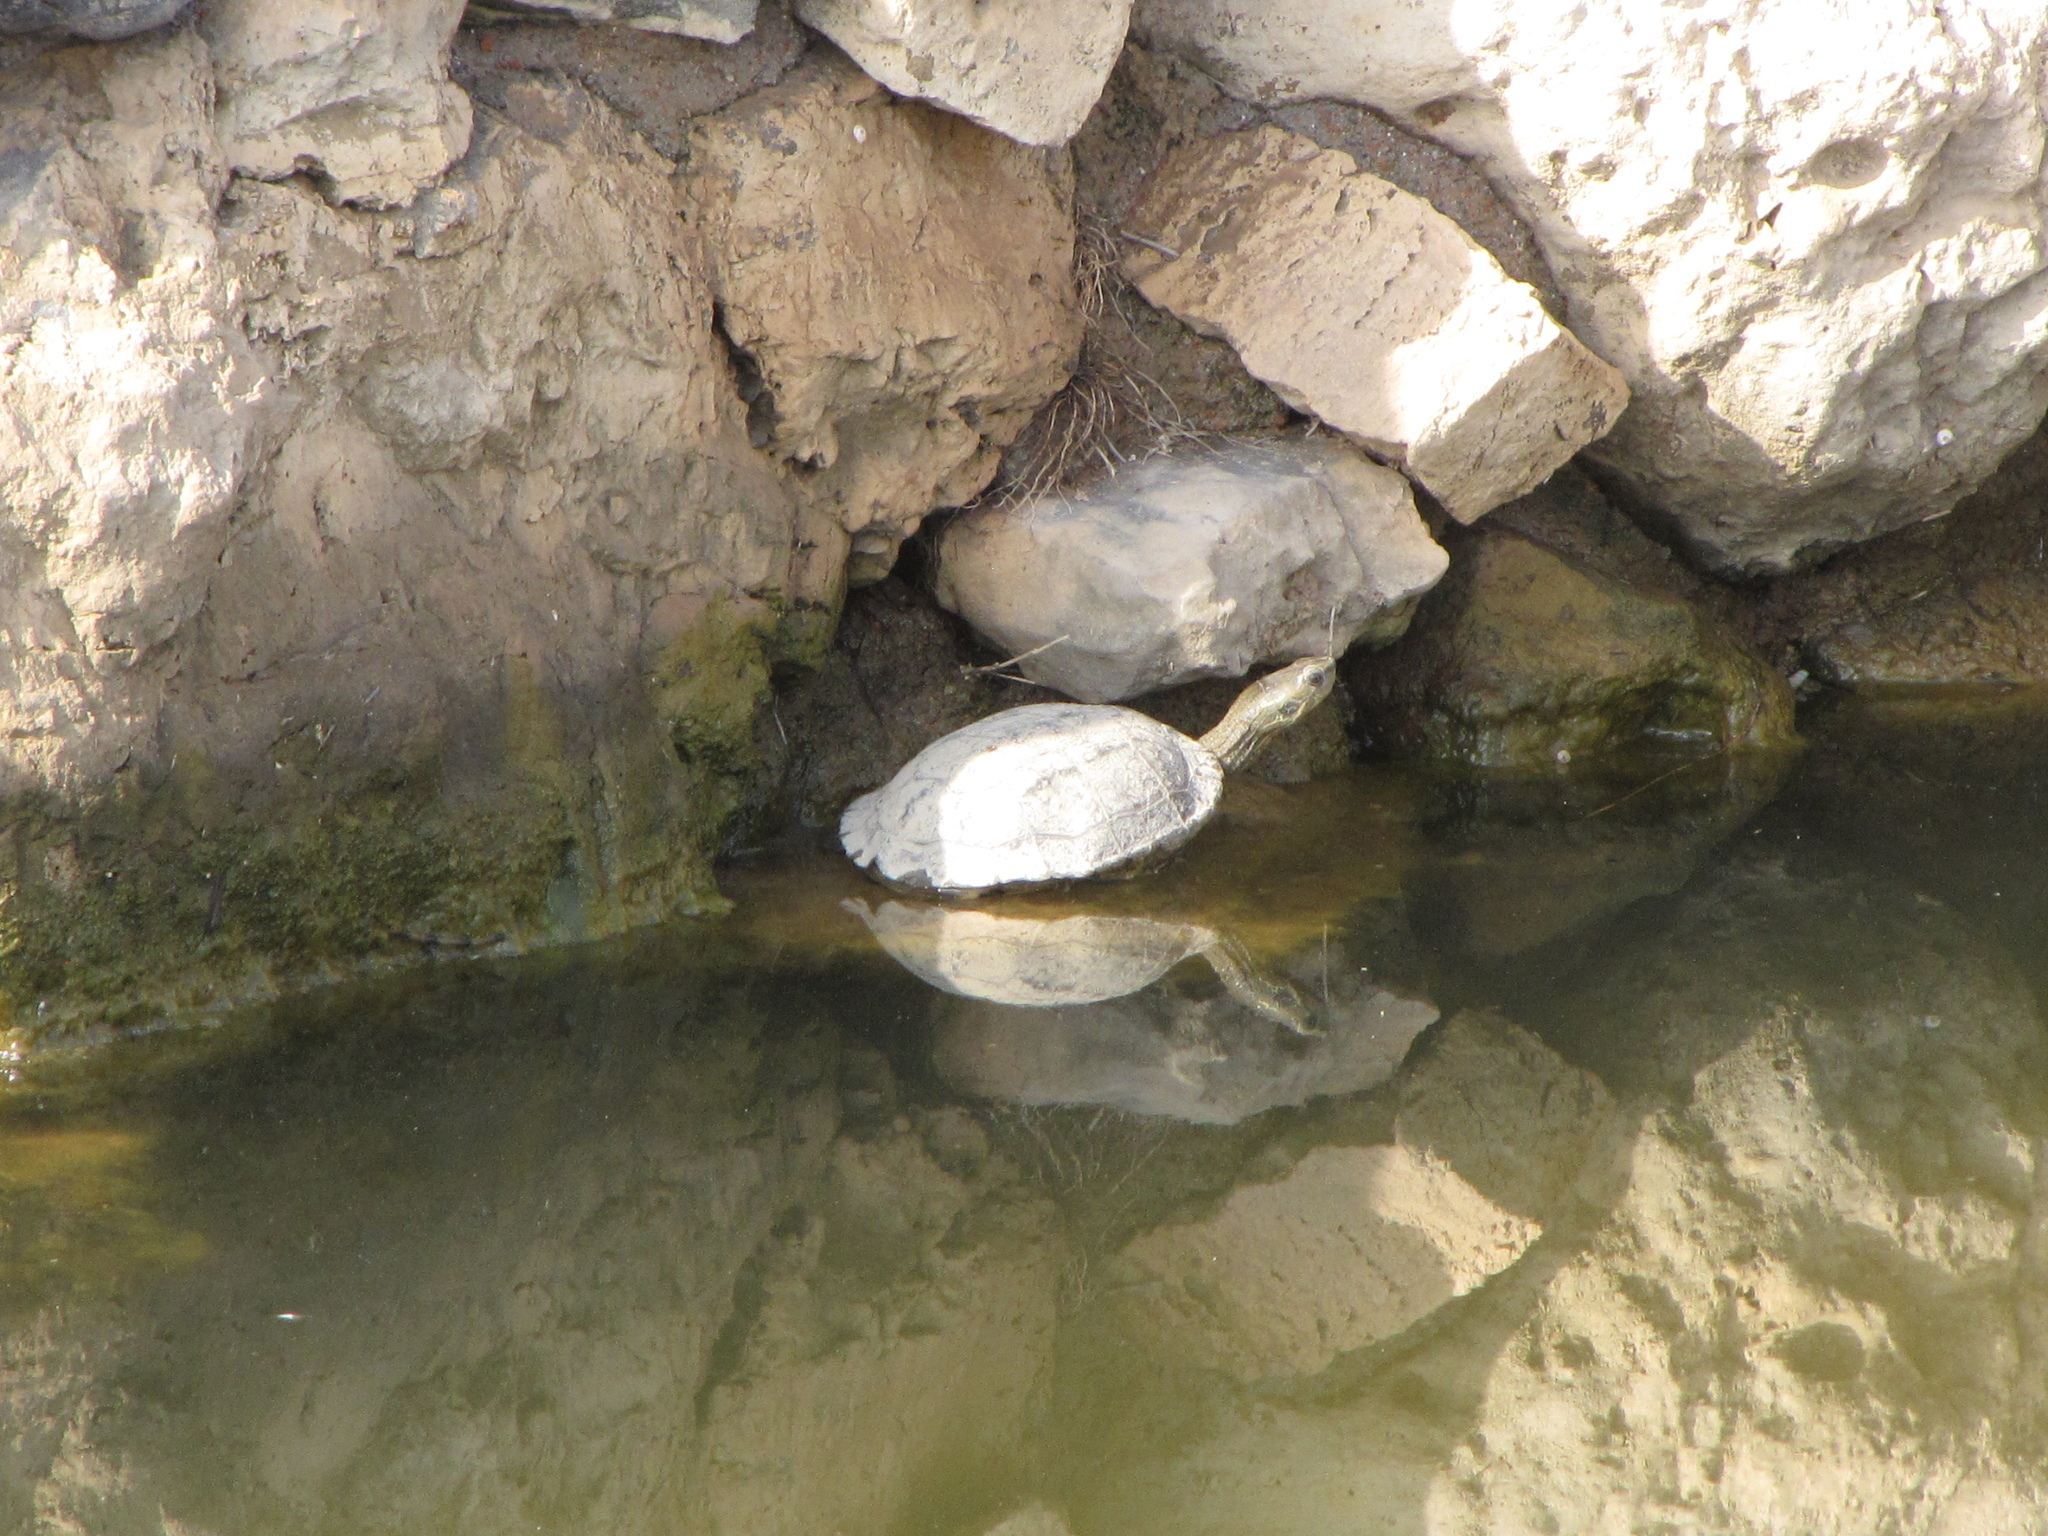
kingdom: Animalia
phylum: Chordata
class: Testudines
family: Geoemydidae
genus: Mauremys
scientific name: Mauremys rivulata
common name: Western caspian turtle
